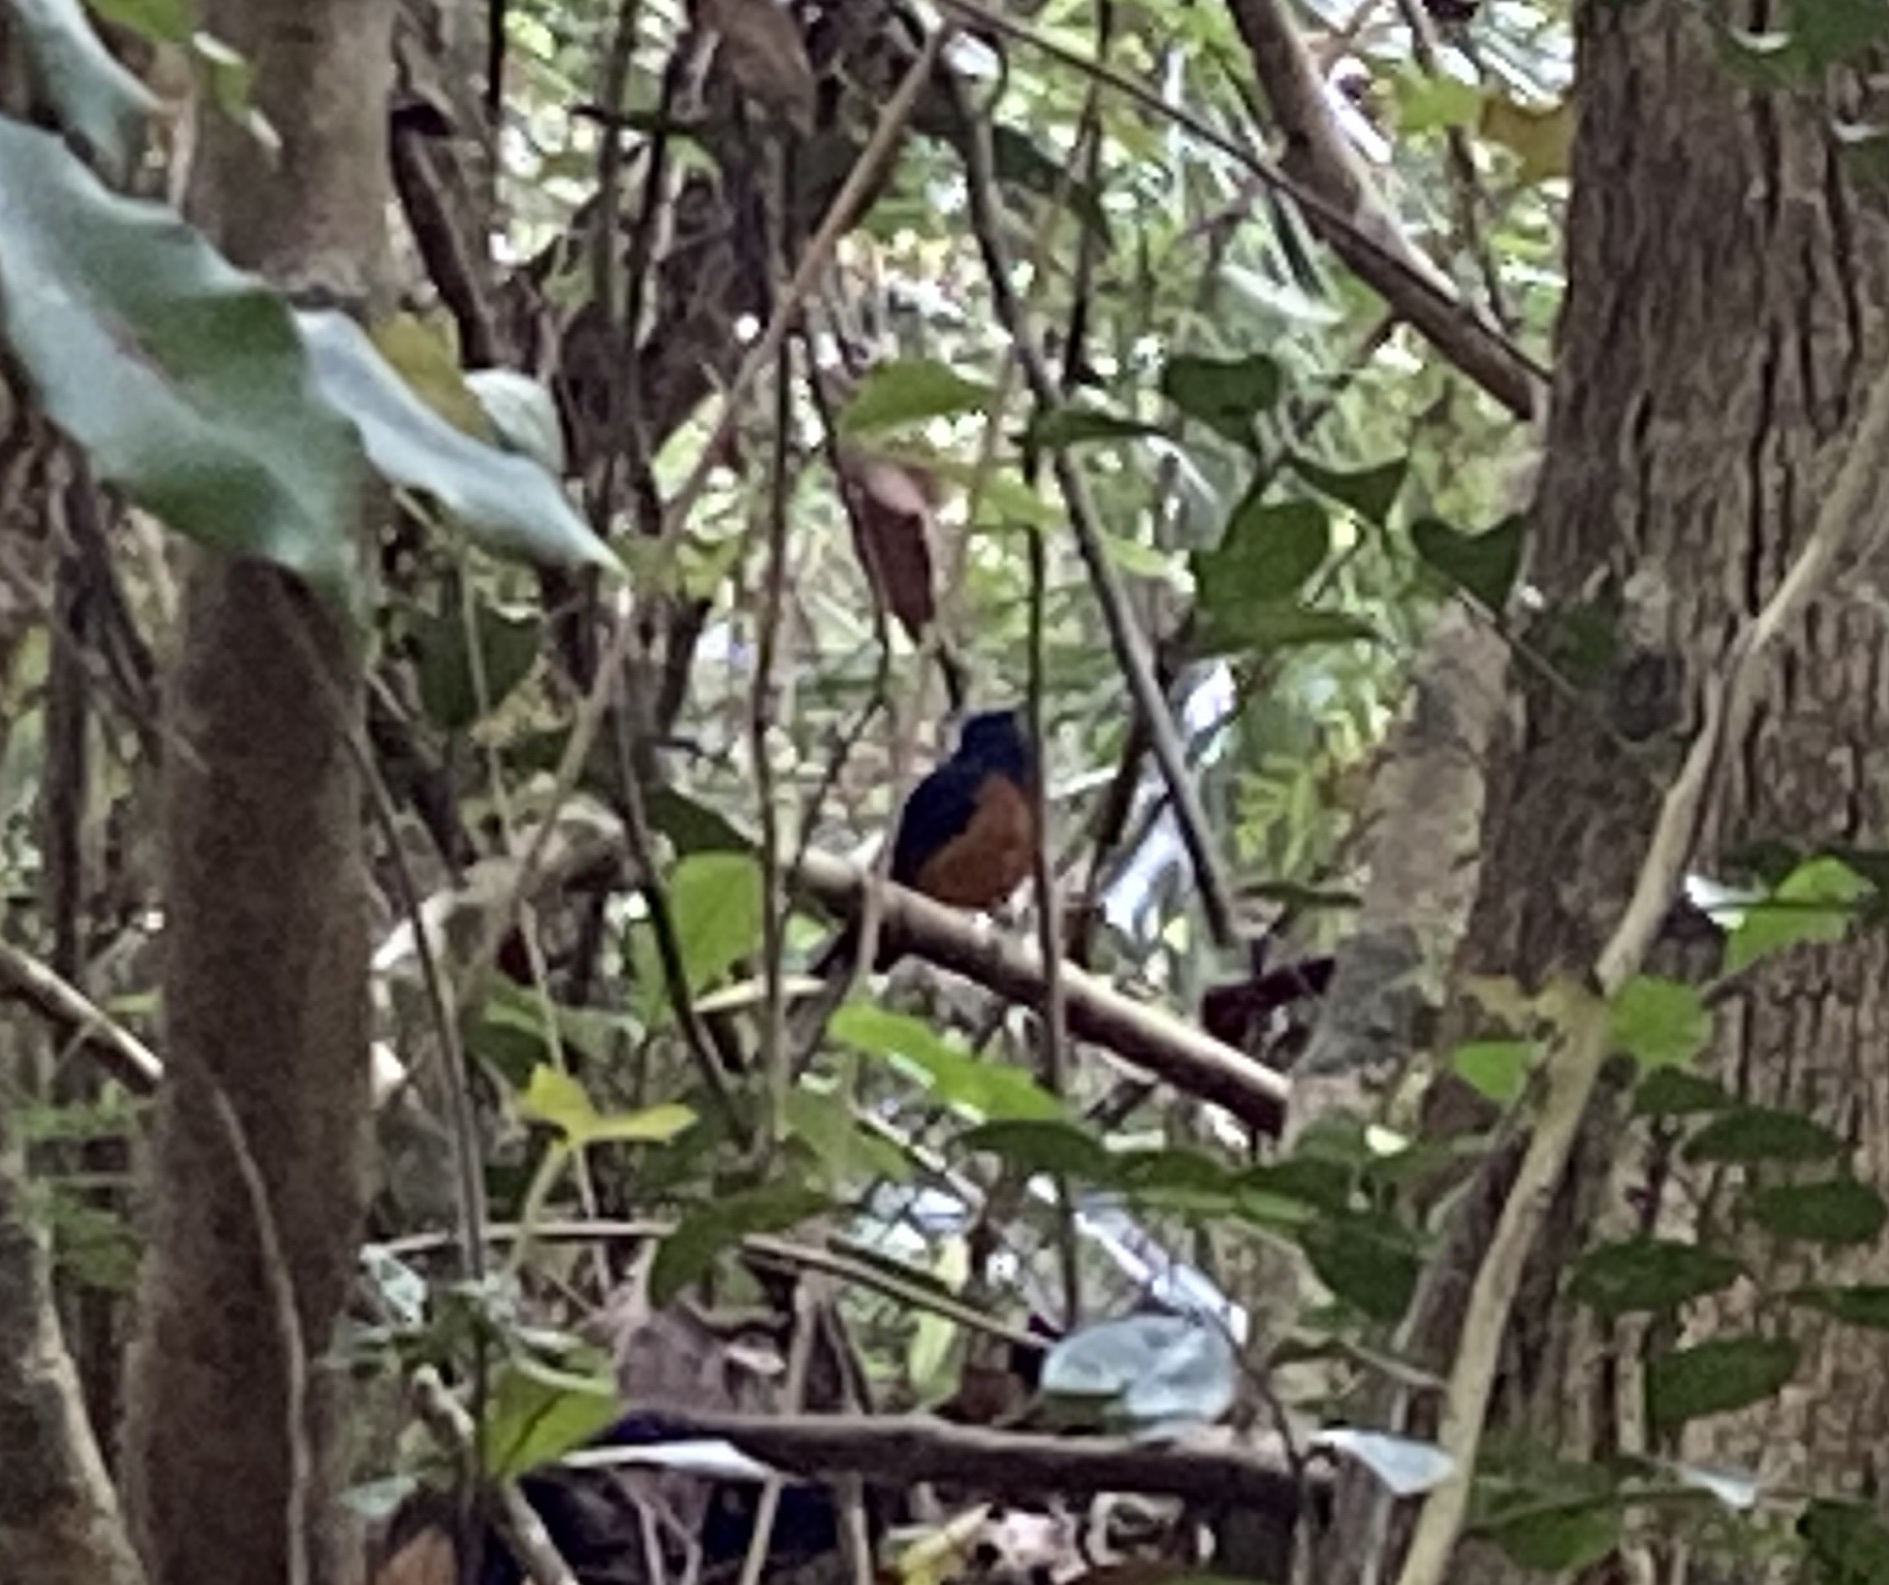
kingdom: Animalia
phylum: Chordata
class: Aves
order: Passeriformes
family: Muscicapidae
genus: Copsychus
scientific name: Copsychus malabaricus
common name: White-rumped shama
